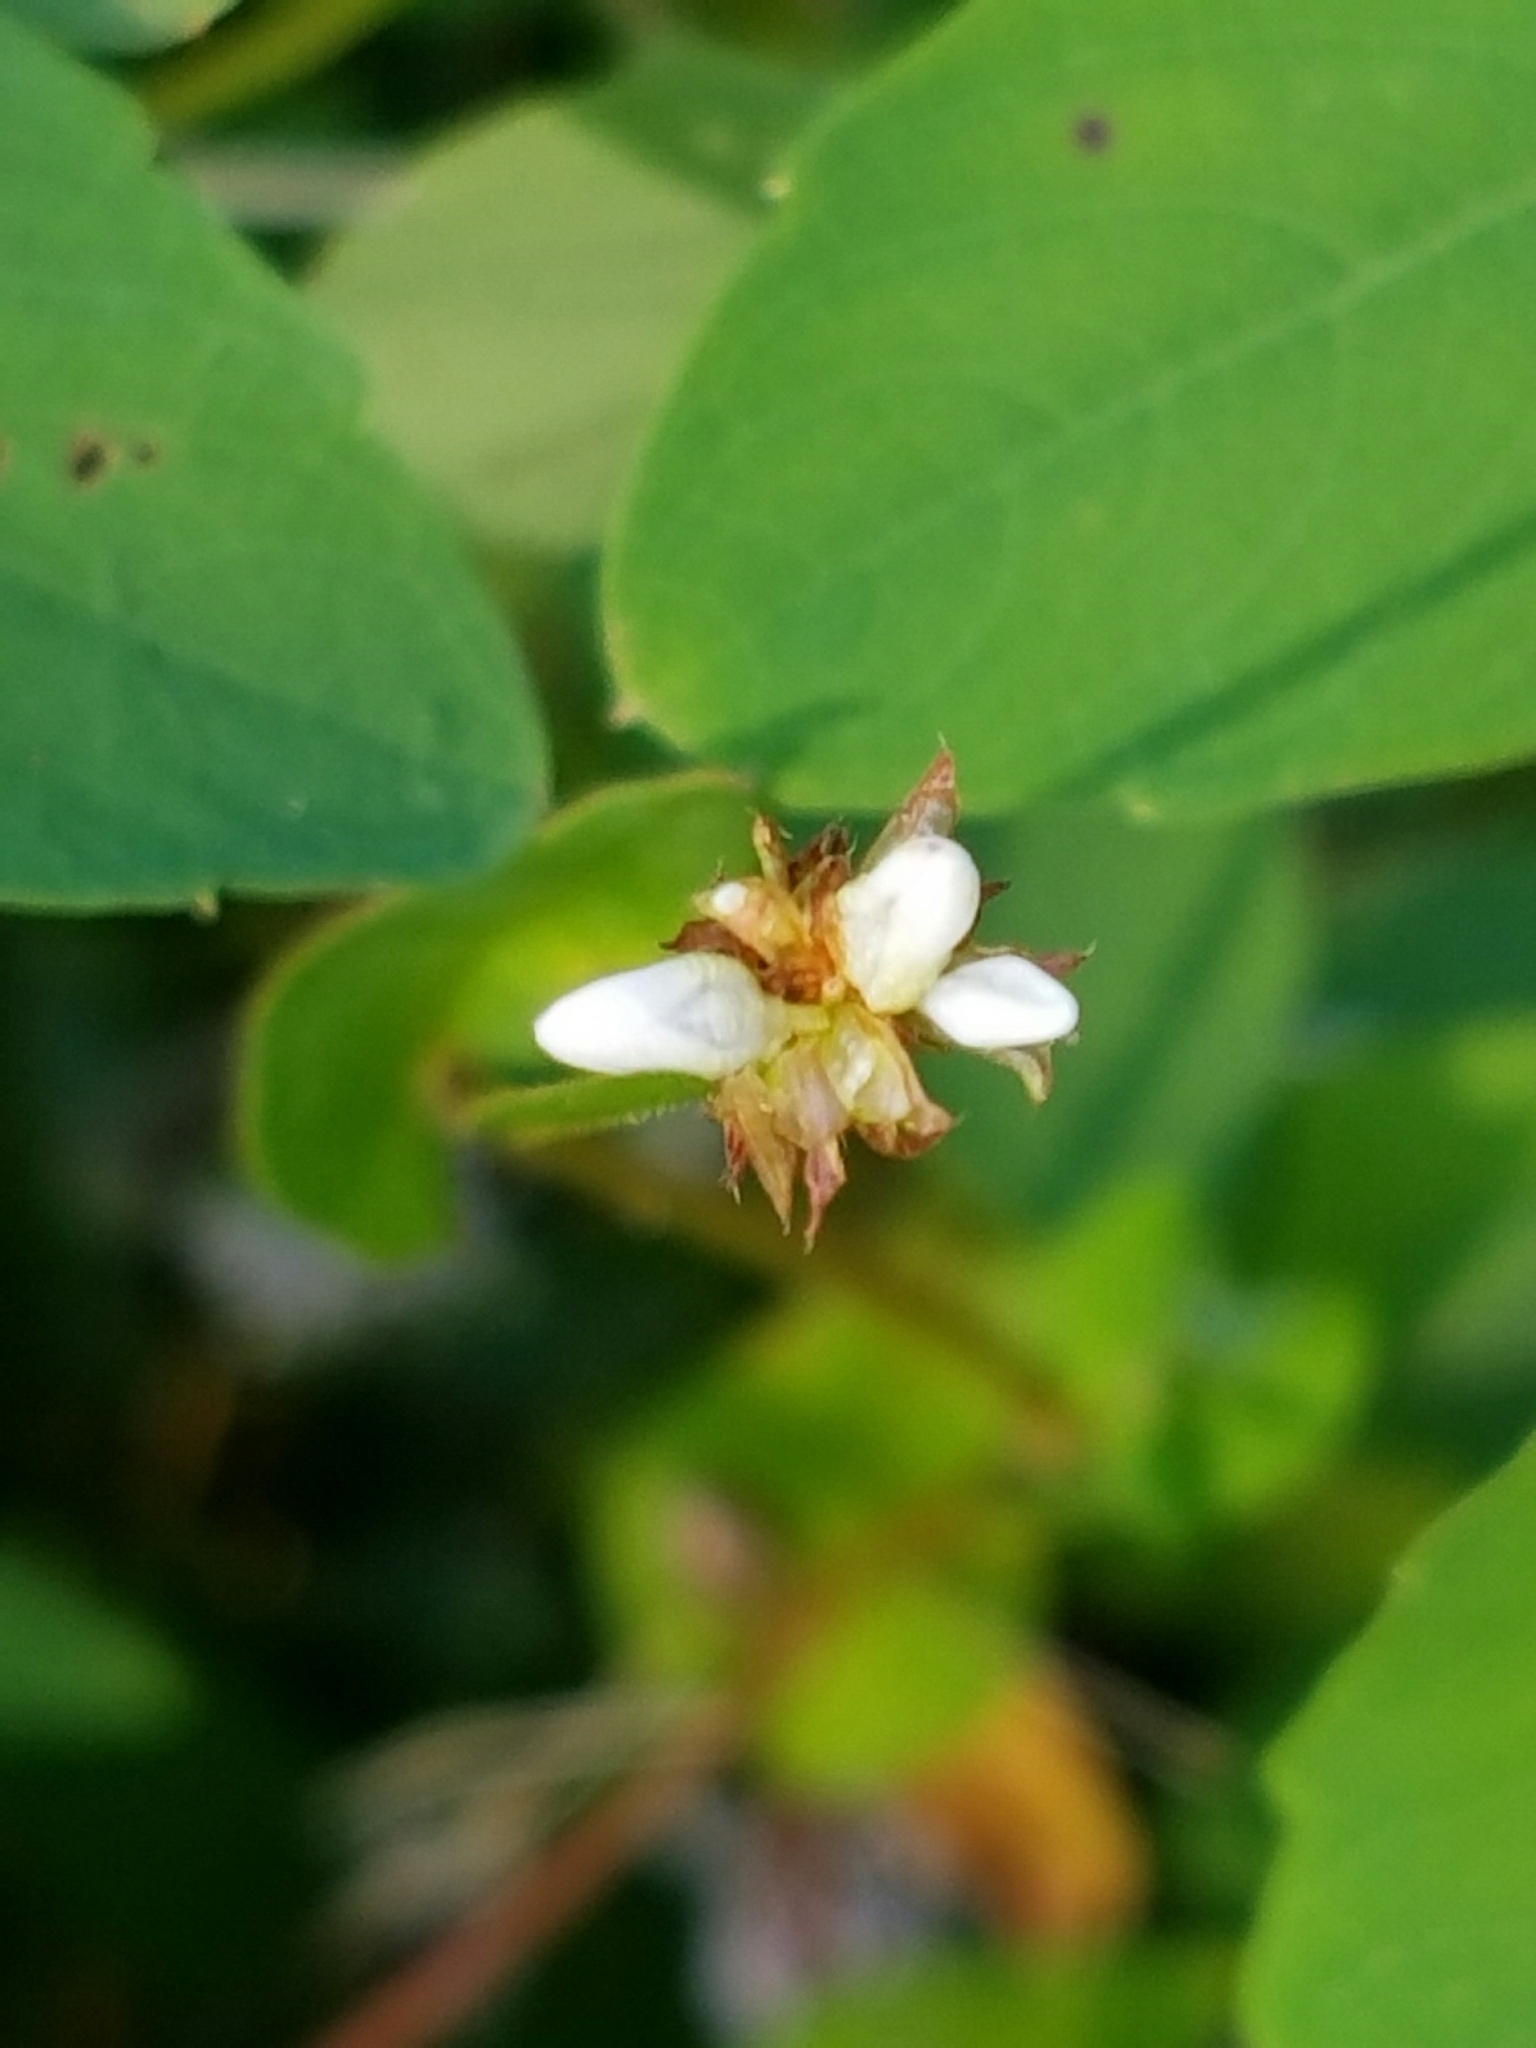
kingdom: Plantae
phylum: Tracheophyta
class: Magnoliopsida
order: Caryophyllales
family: Polygonaceae
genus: Persicaria
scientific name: Persicaria sagittata
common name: American tearthumb
